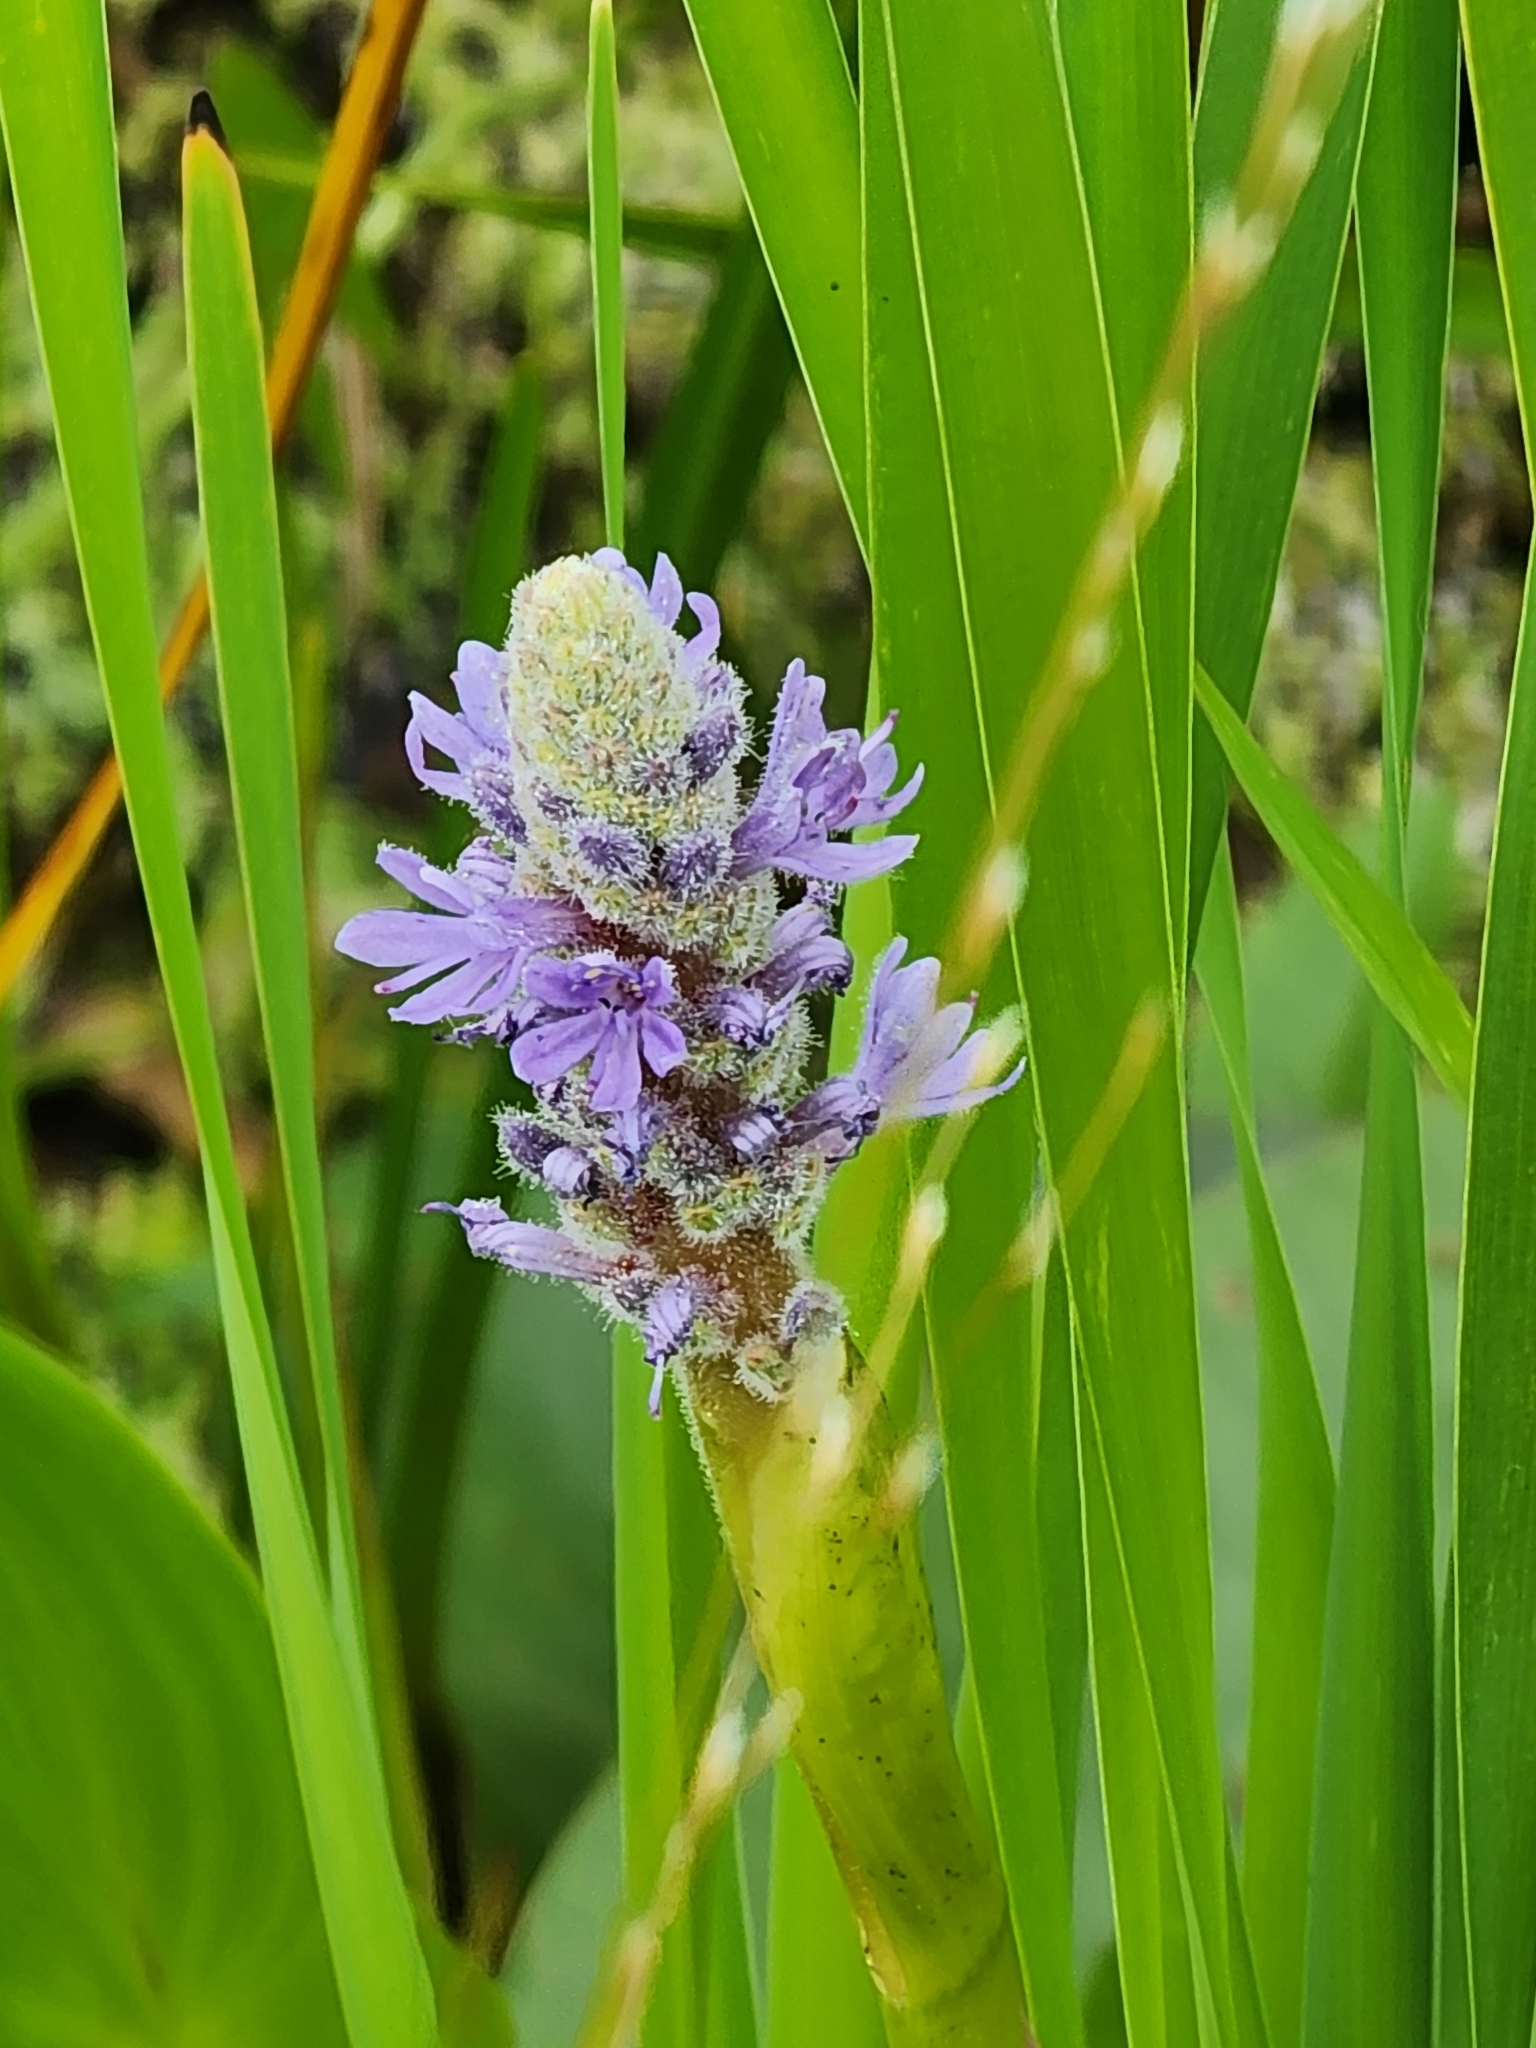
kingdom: Plantae
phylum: Tracheophyta
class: Liliopsida
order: Commelinales
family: Pontederiaceae
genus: Pontederia
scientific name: Pontederia cordata
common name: Pickerelweed
